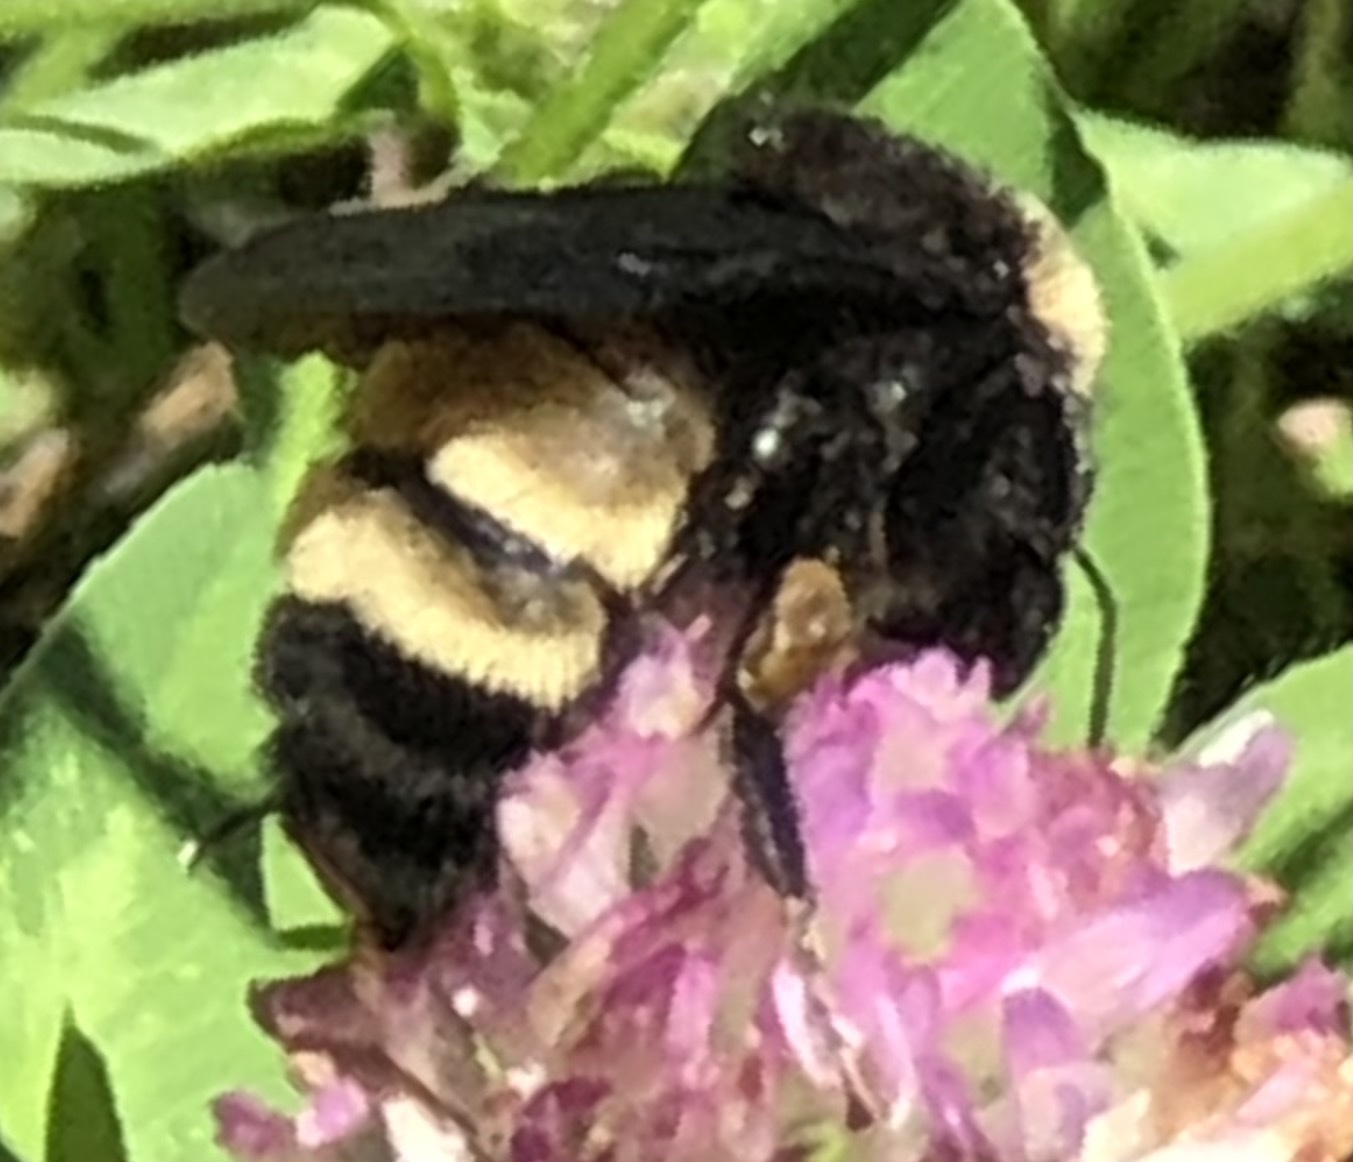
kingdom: Animalia
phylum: Arthropoda
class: Insecta
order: Hymenoptera
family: Apidae
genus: Bombus
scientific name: Bombus pensylvanicus
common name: Bumble bee
